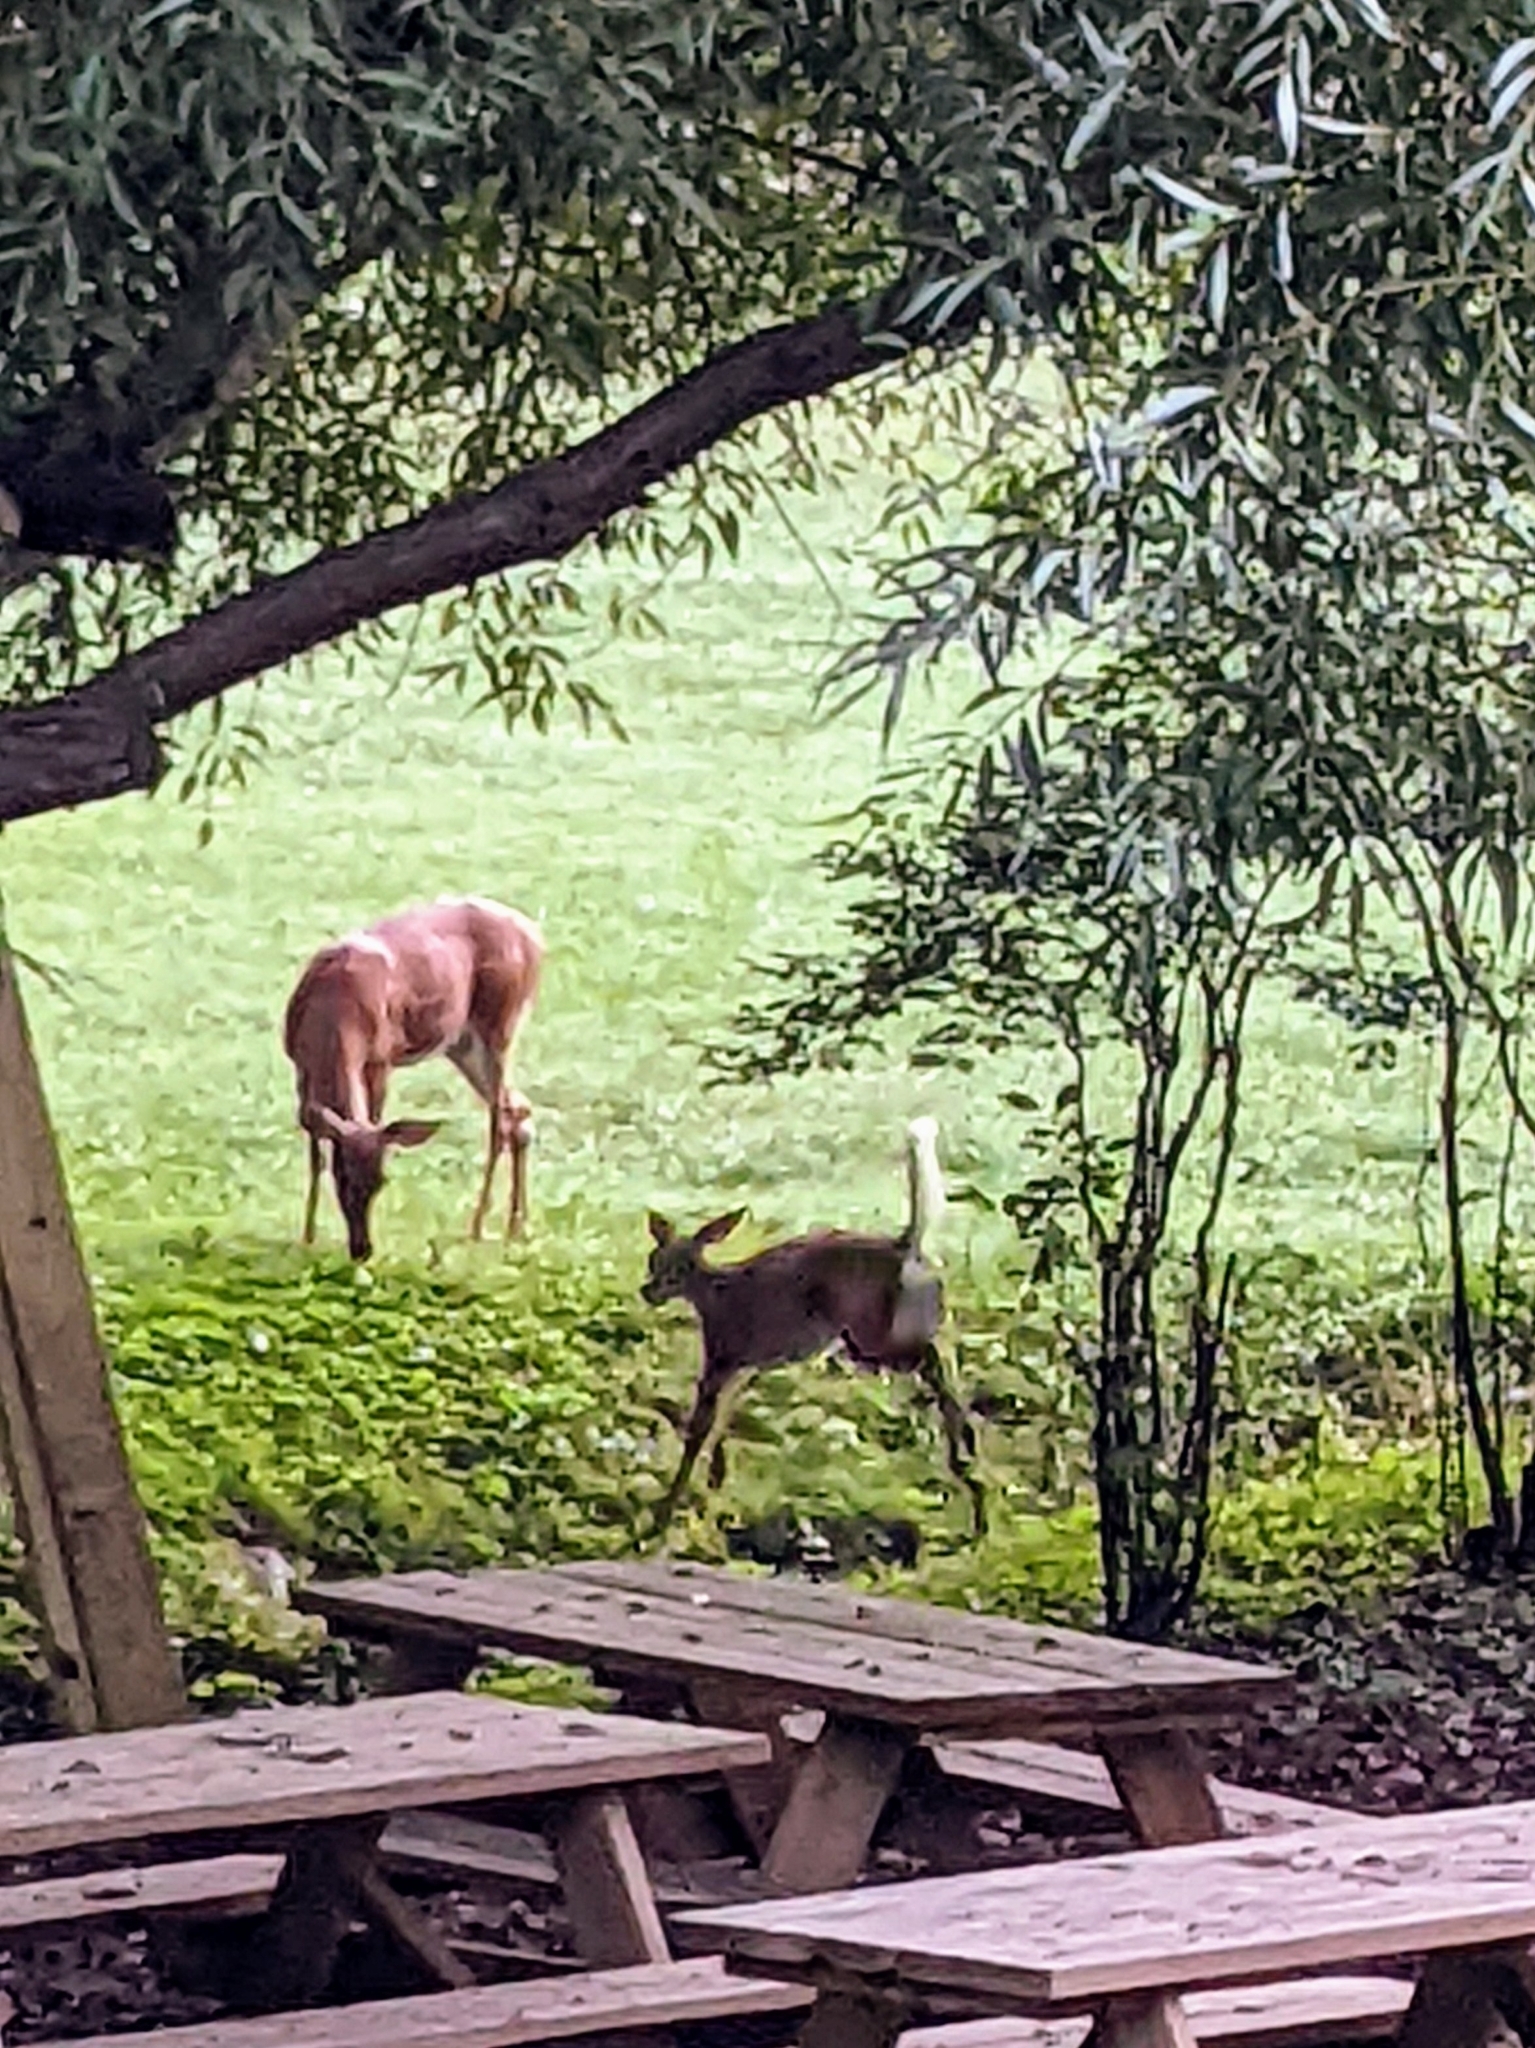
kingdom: Animalia
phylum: Chordata
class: Mammalia
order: Artiodactyla
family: Cervidae
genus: Odocoileus
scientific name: Odocoileus virginianus
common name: White-tailed deer
